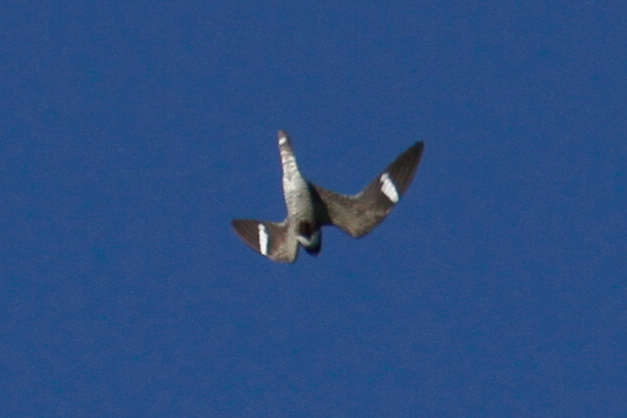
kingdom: Animalia
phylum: Chordata
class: Aves
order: Caprimulgiformes
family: Caprimulgidae
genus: Chordeiles
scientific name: Chordeiles minor
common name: Common nighthawk
